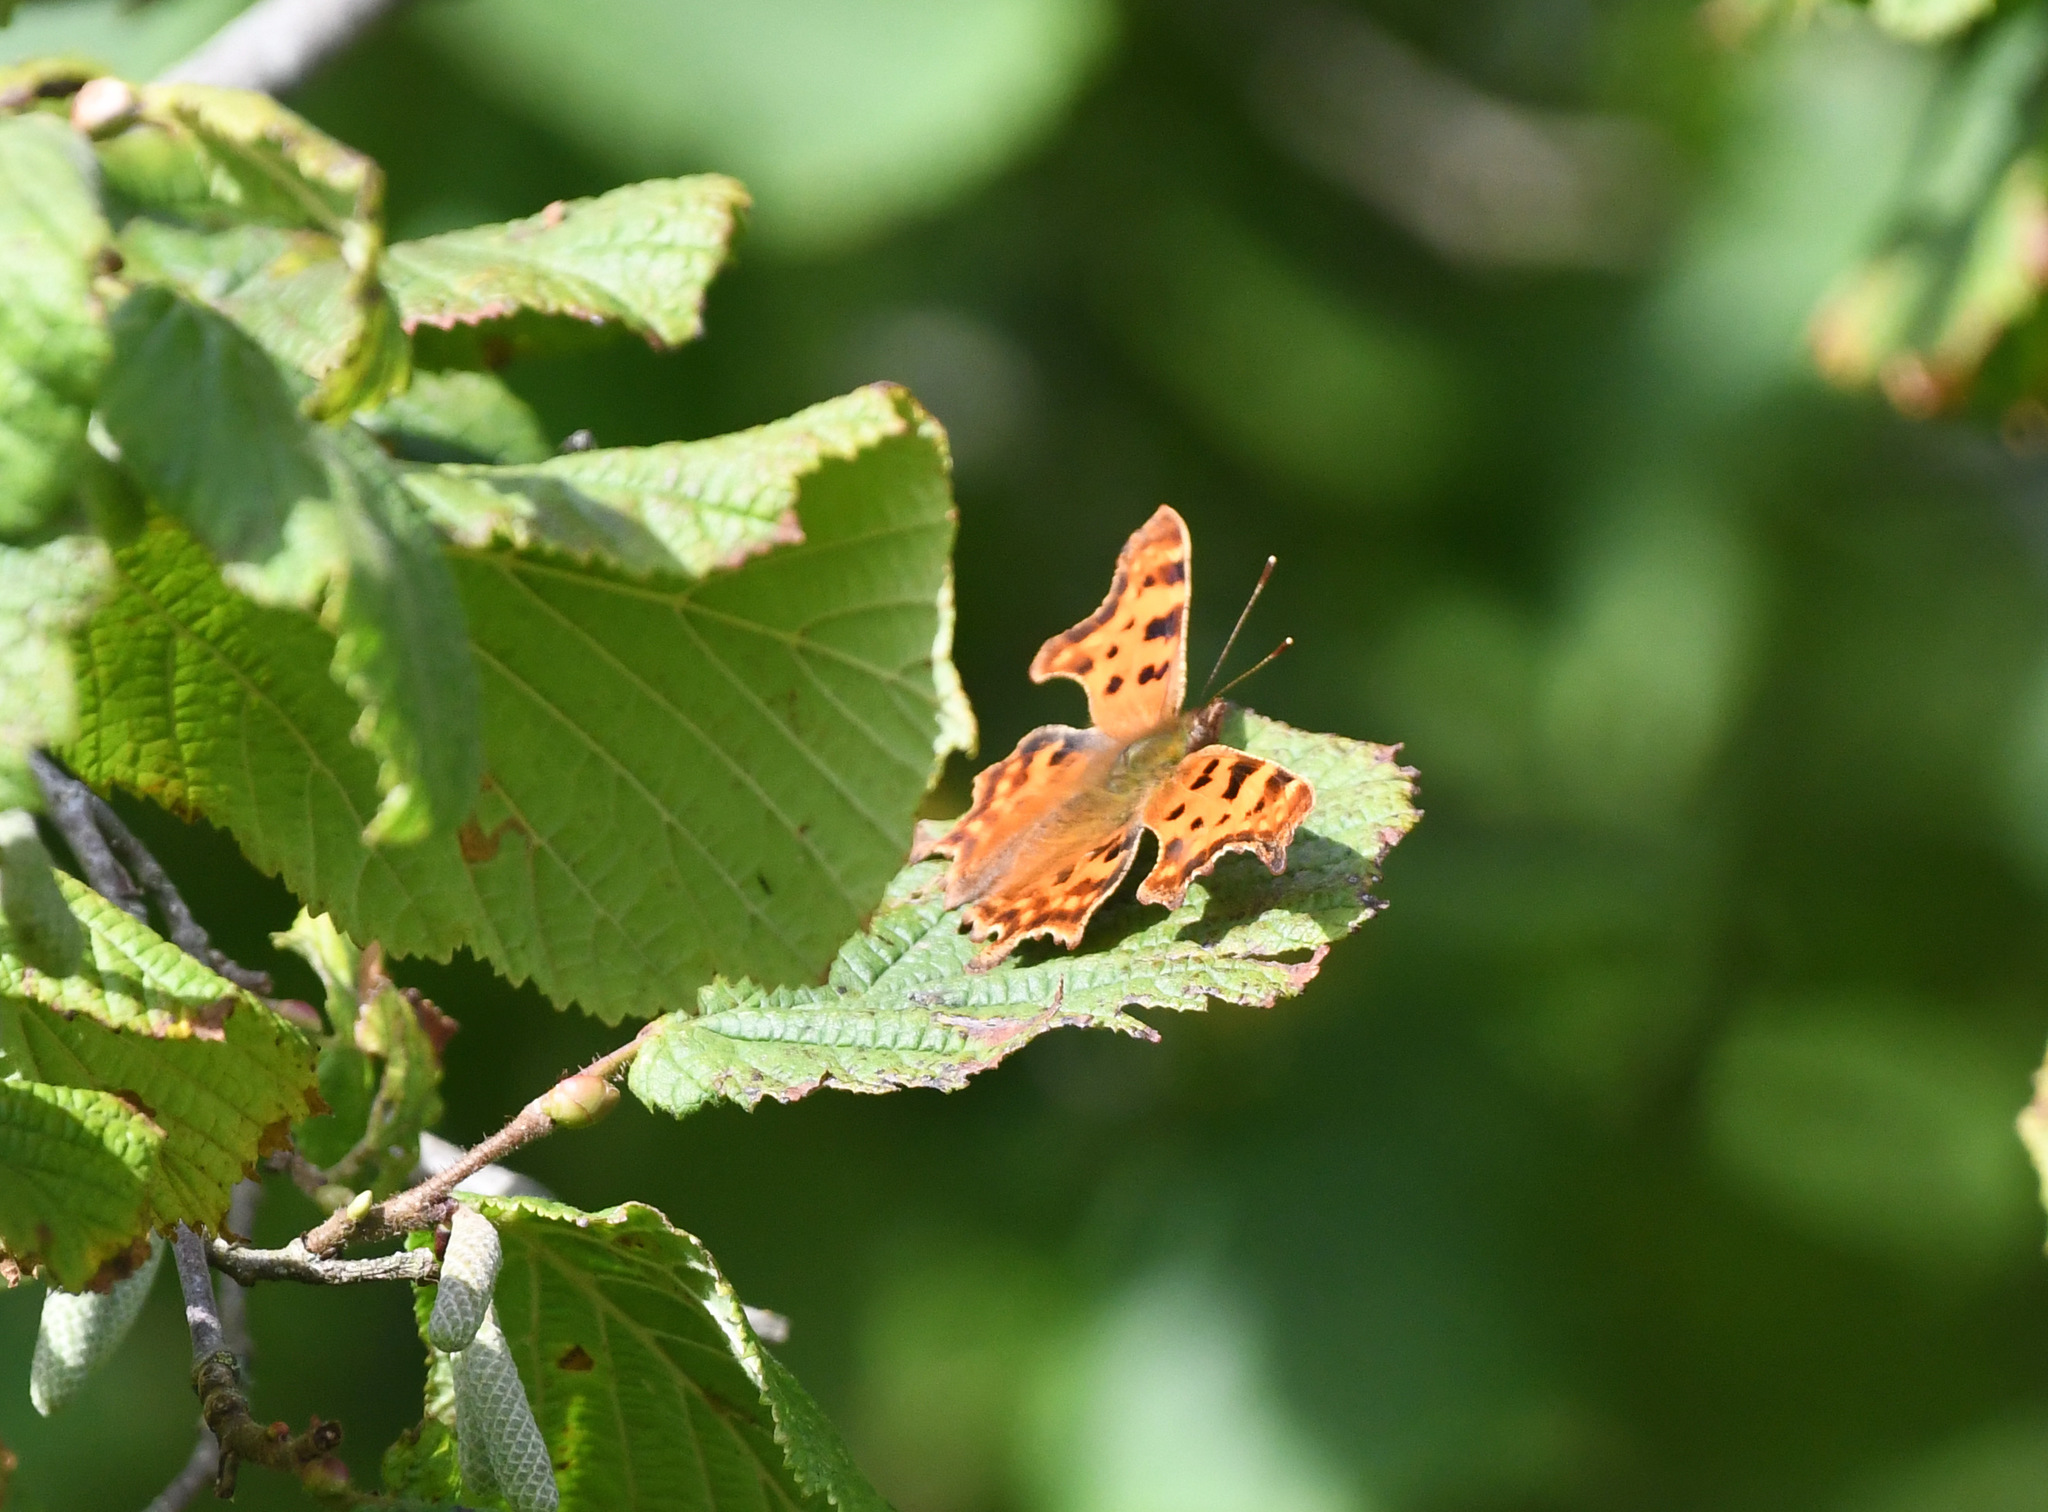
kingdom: Animalia
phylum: Arthropoda
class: Insecta
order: Lepidoptera
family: Nymphalidae
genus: Polygonia
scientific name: Polygonia c-album
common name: Comma
